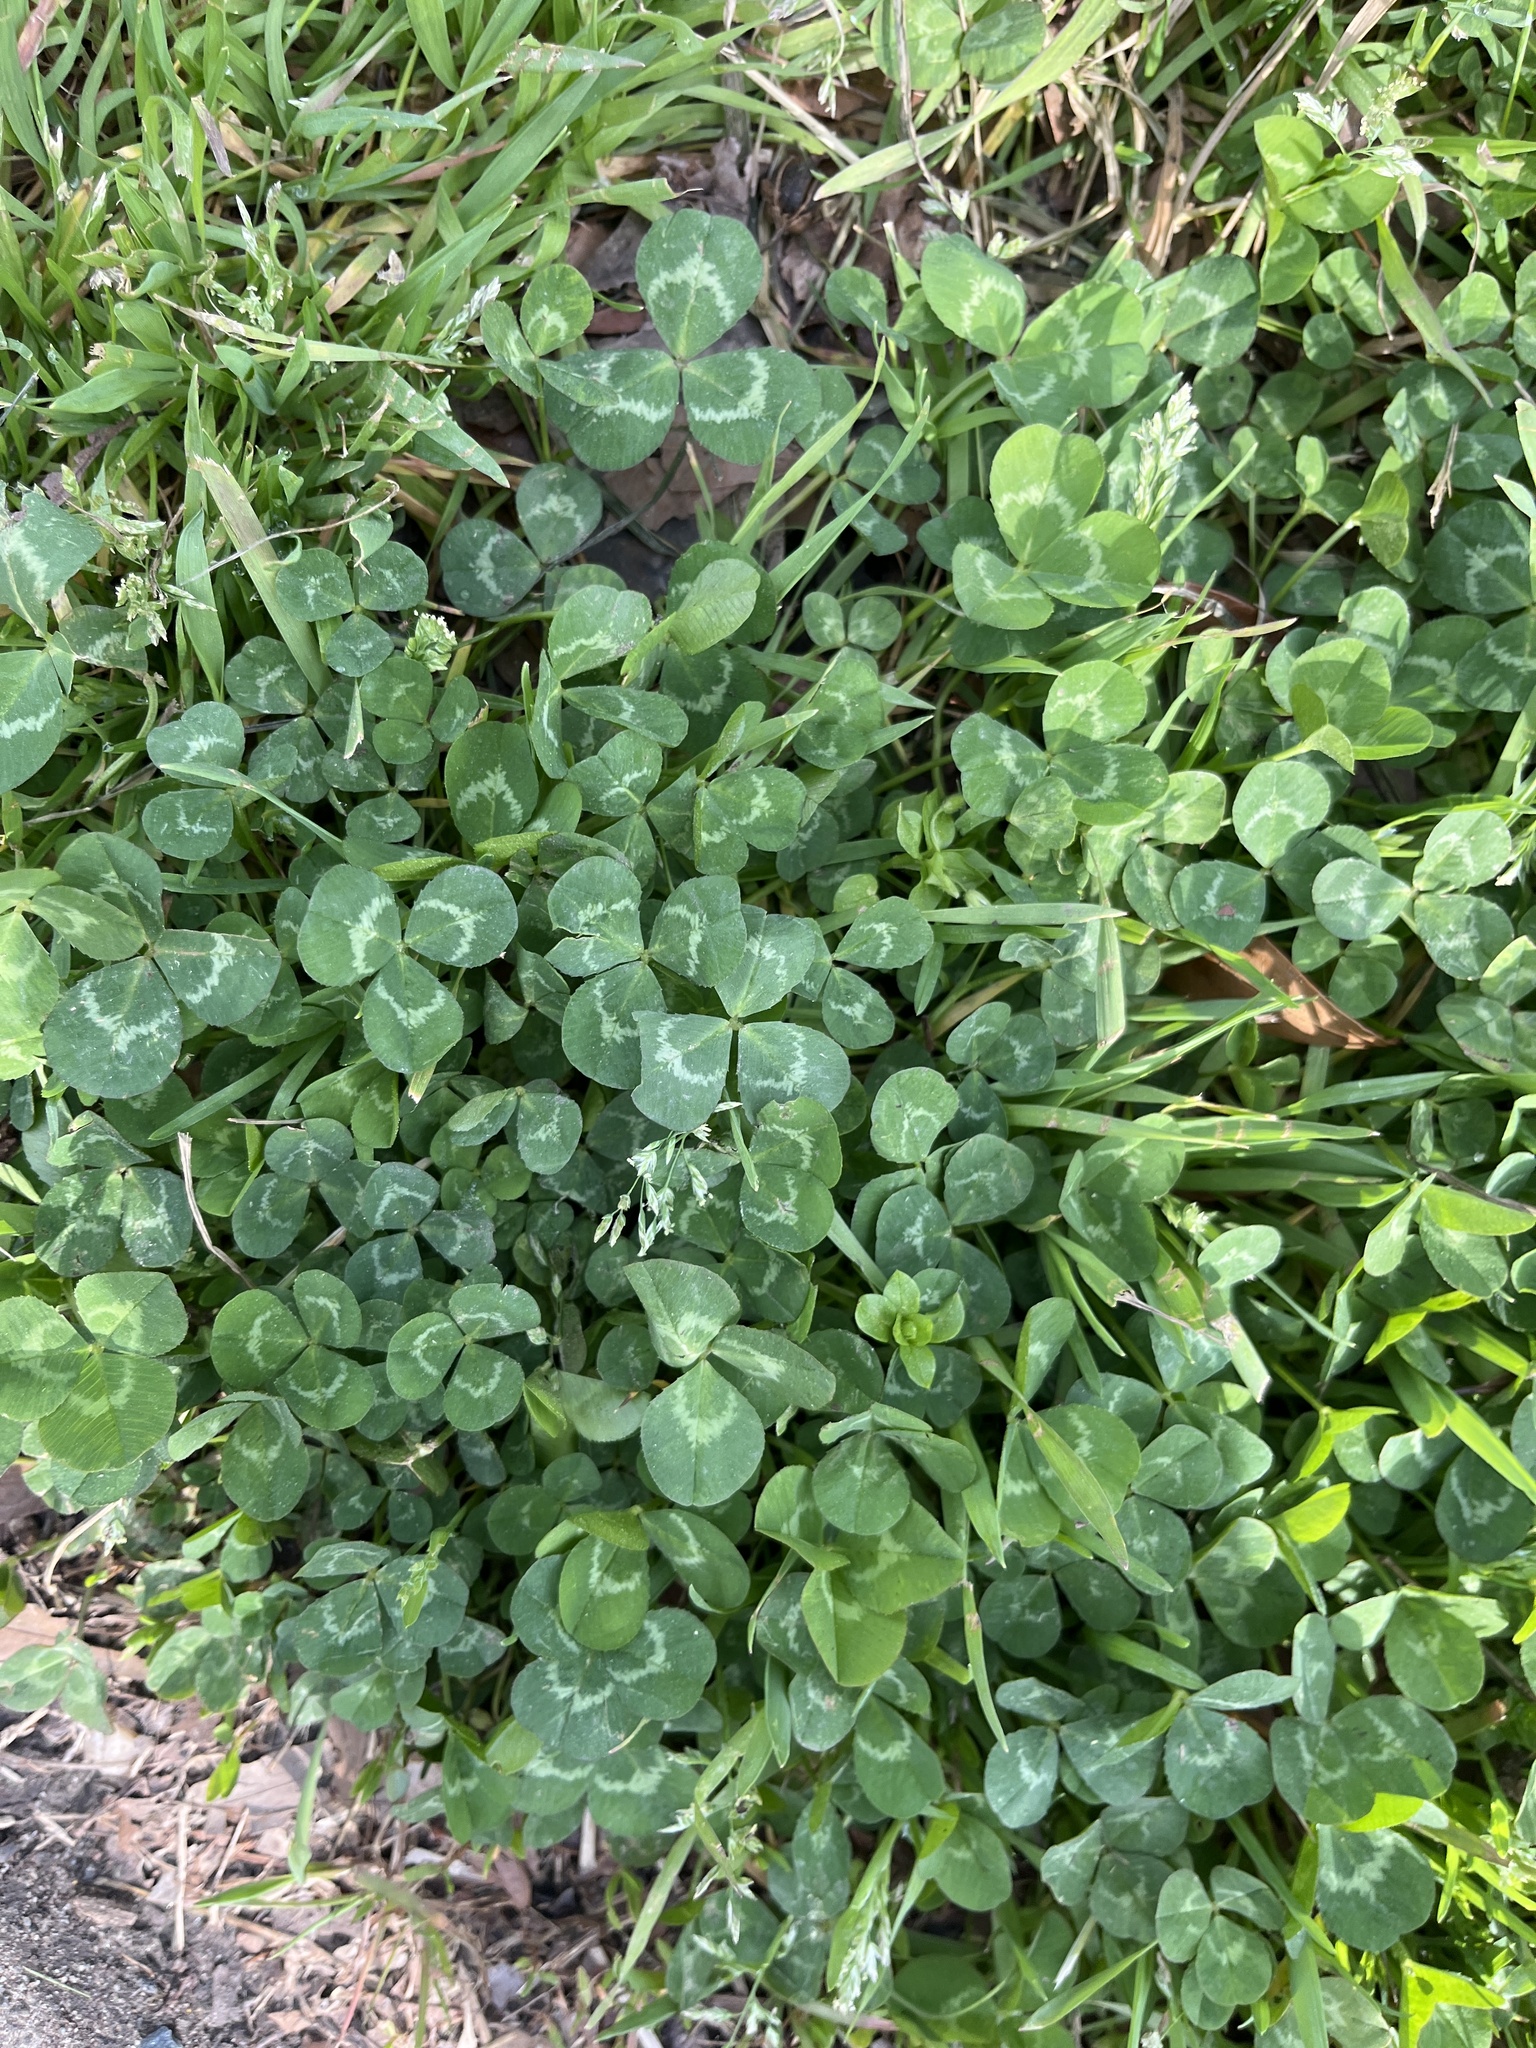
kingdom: Plantae
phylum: Tracheophyta
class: Magnoliopsida
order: Fabales
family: Fabaceae
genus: Trifolium
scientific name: Trifolium repens
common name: White clover
